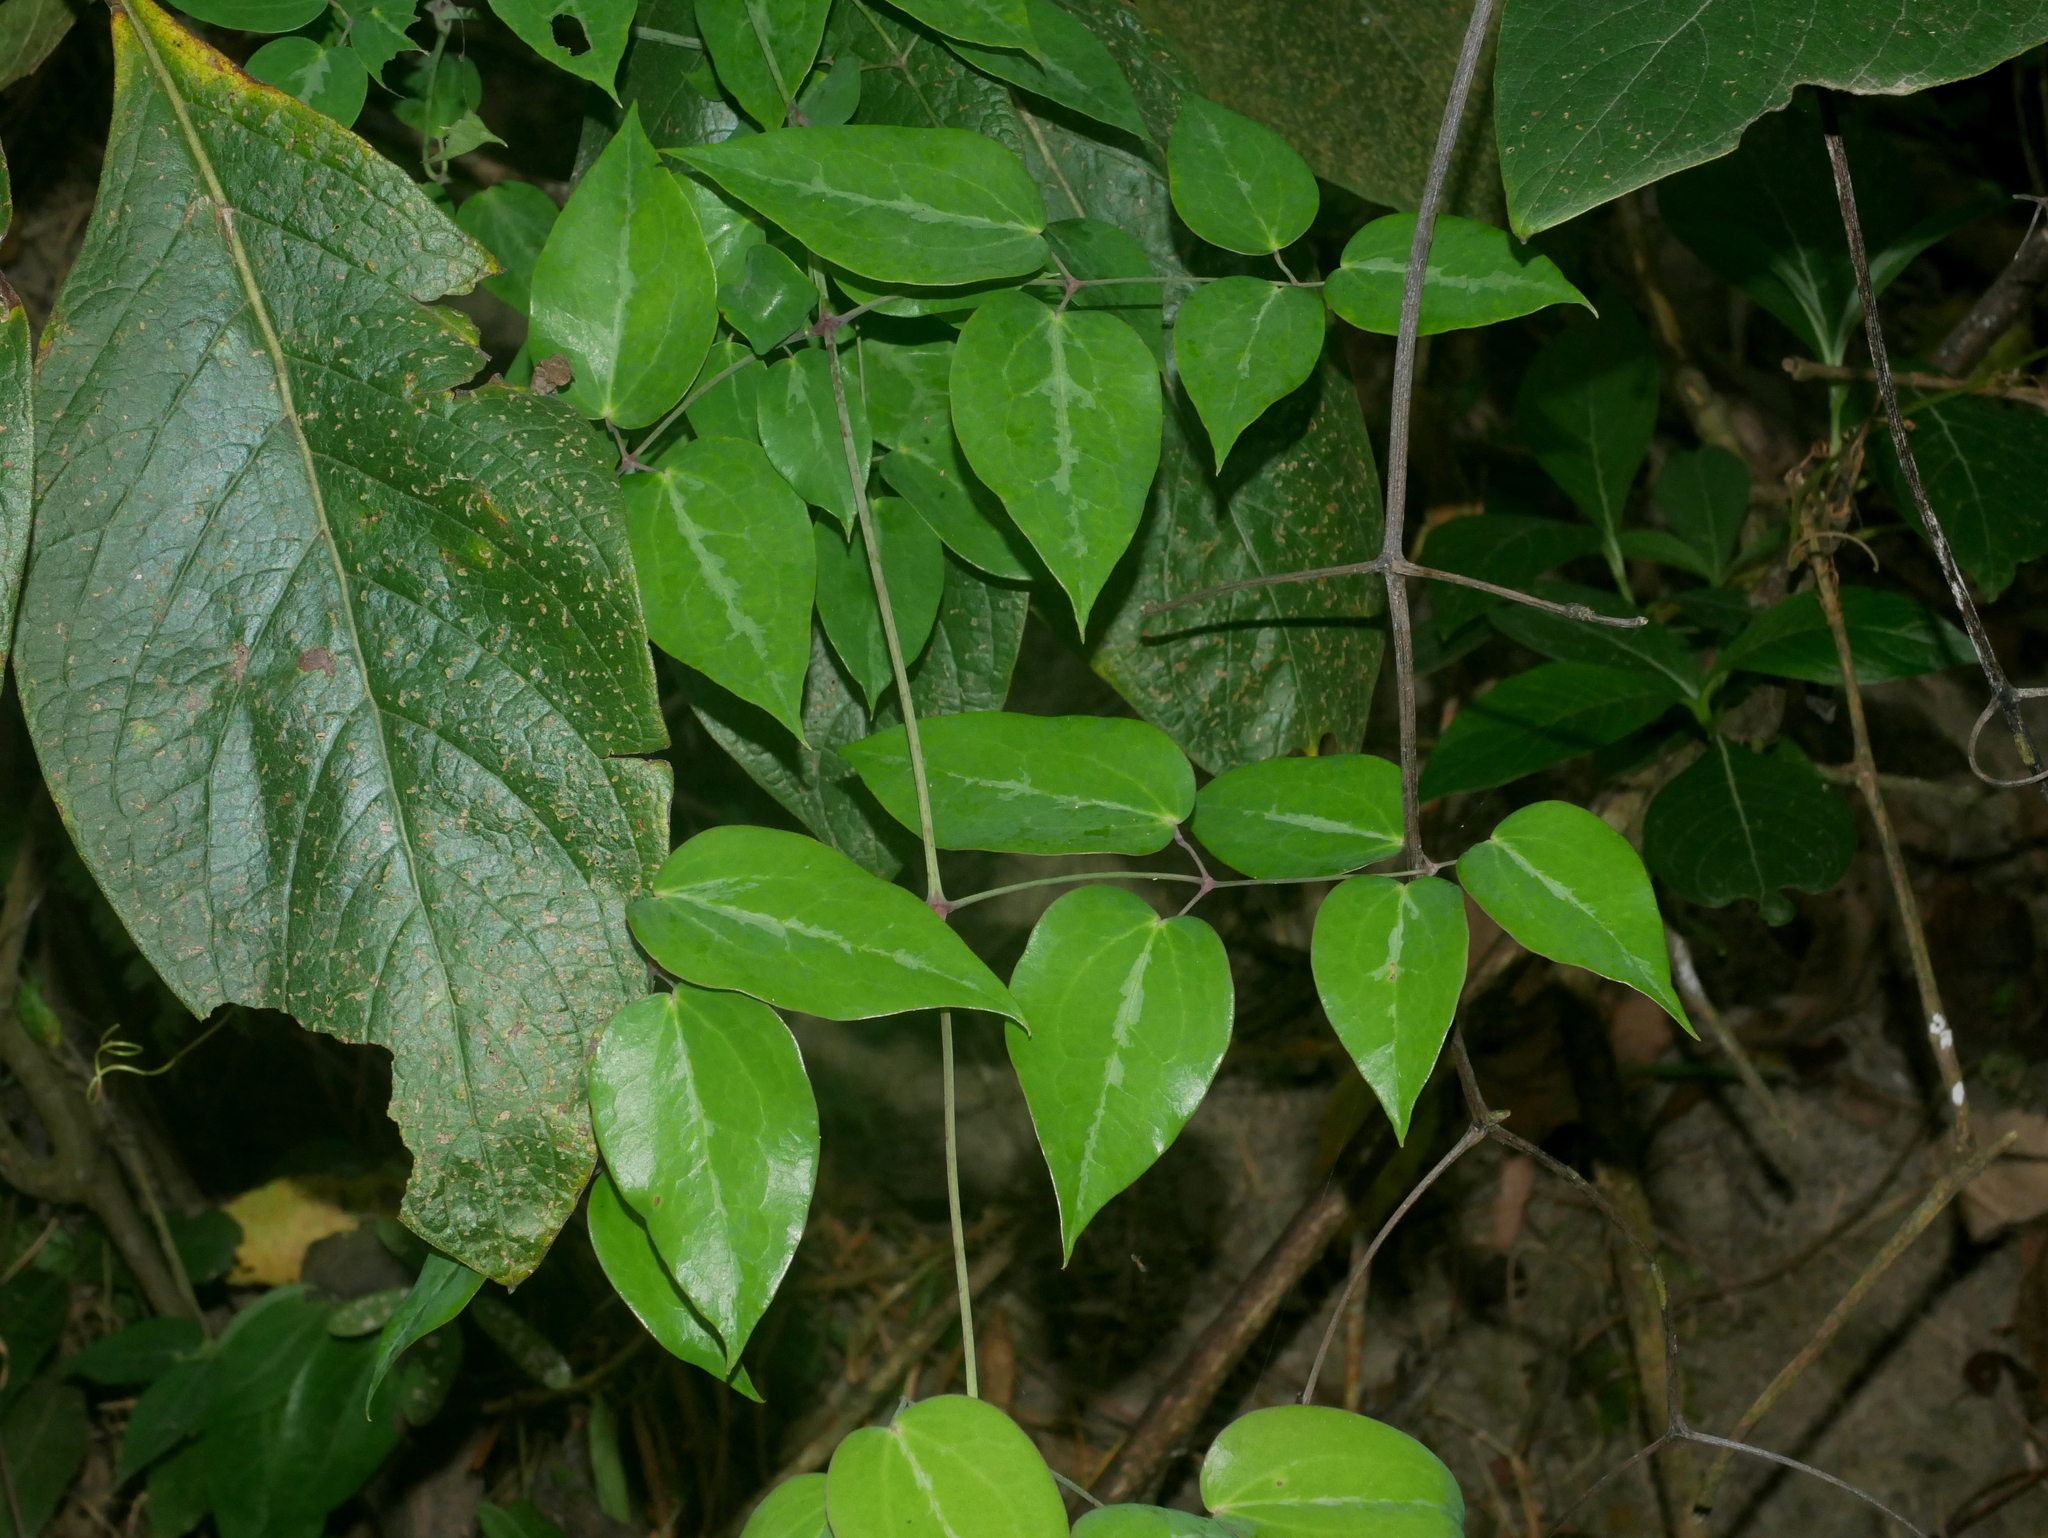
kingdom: Plantae
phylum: Tracheophyta
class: Magnoliopsida
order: Ranunculales
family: Ranunculaceae
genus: Clematis
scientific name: Clematis uncinata
